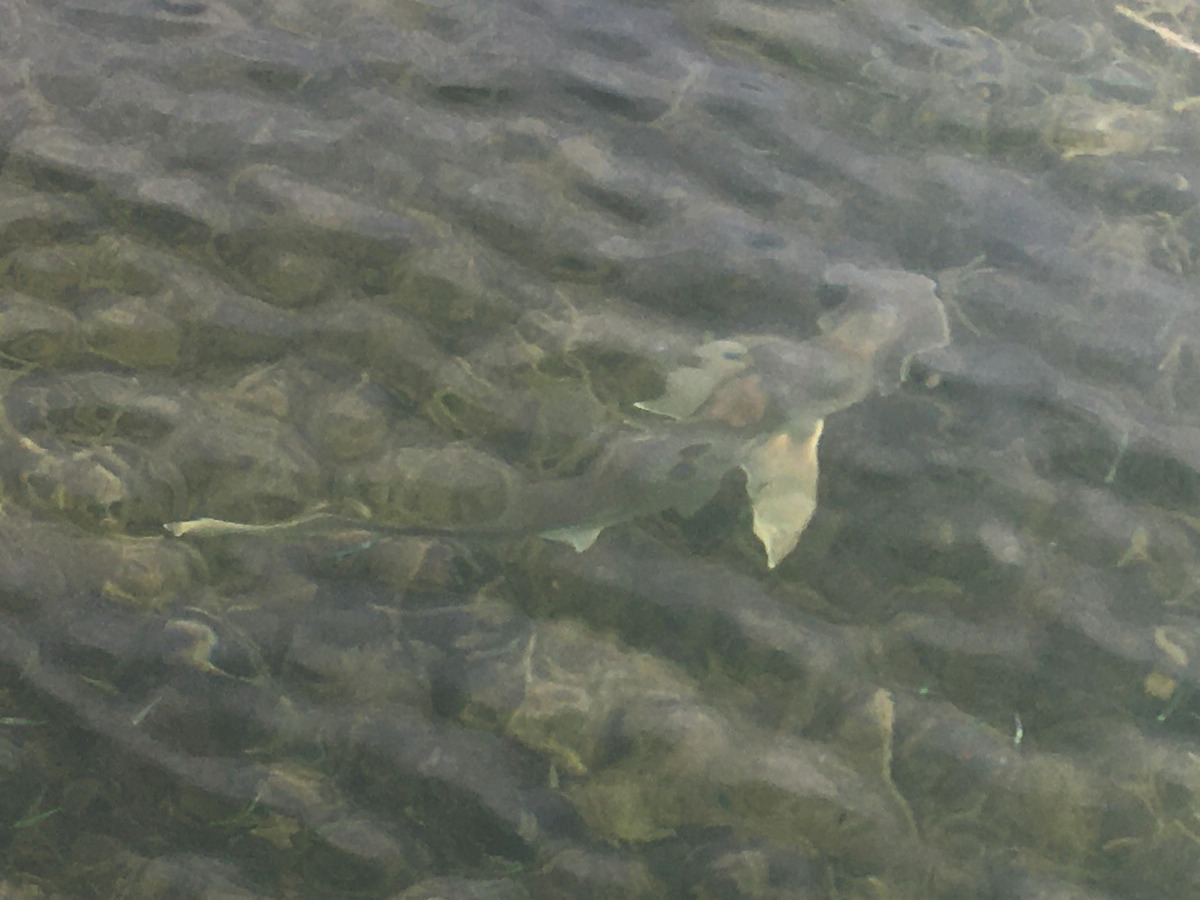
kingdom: Animalia
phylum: Chordata
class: Elasmobranchii
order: Carcharhiniformes
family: Sphyrnidae
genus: Sphyrna
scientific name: Sphyrna tiburo
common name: Bonnethead
